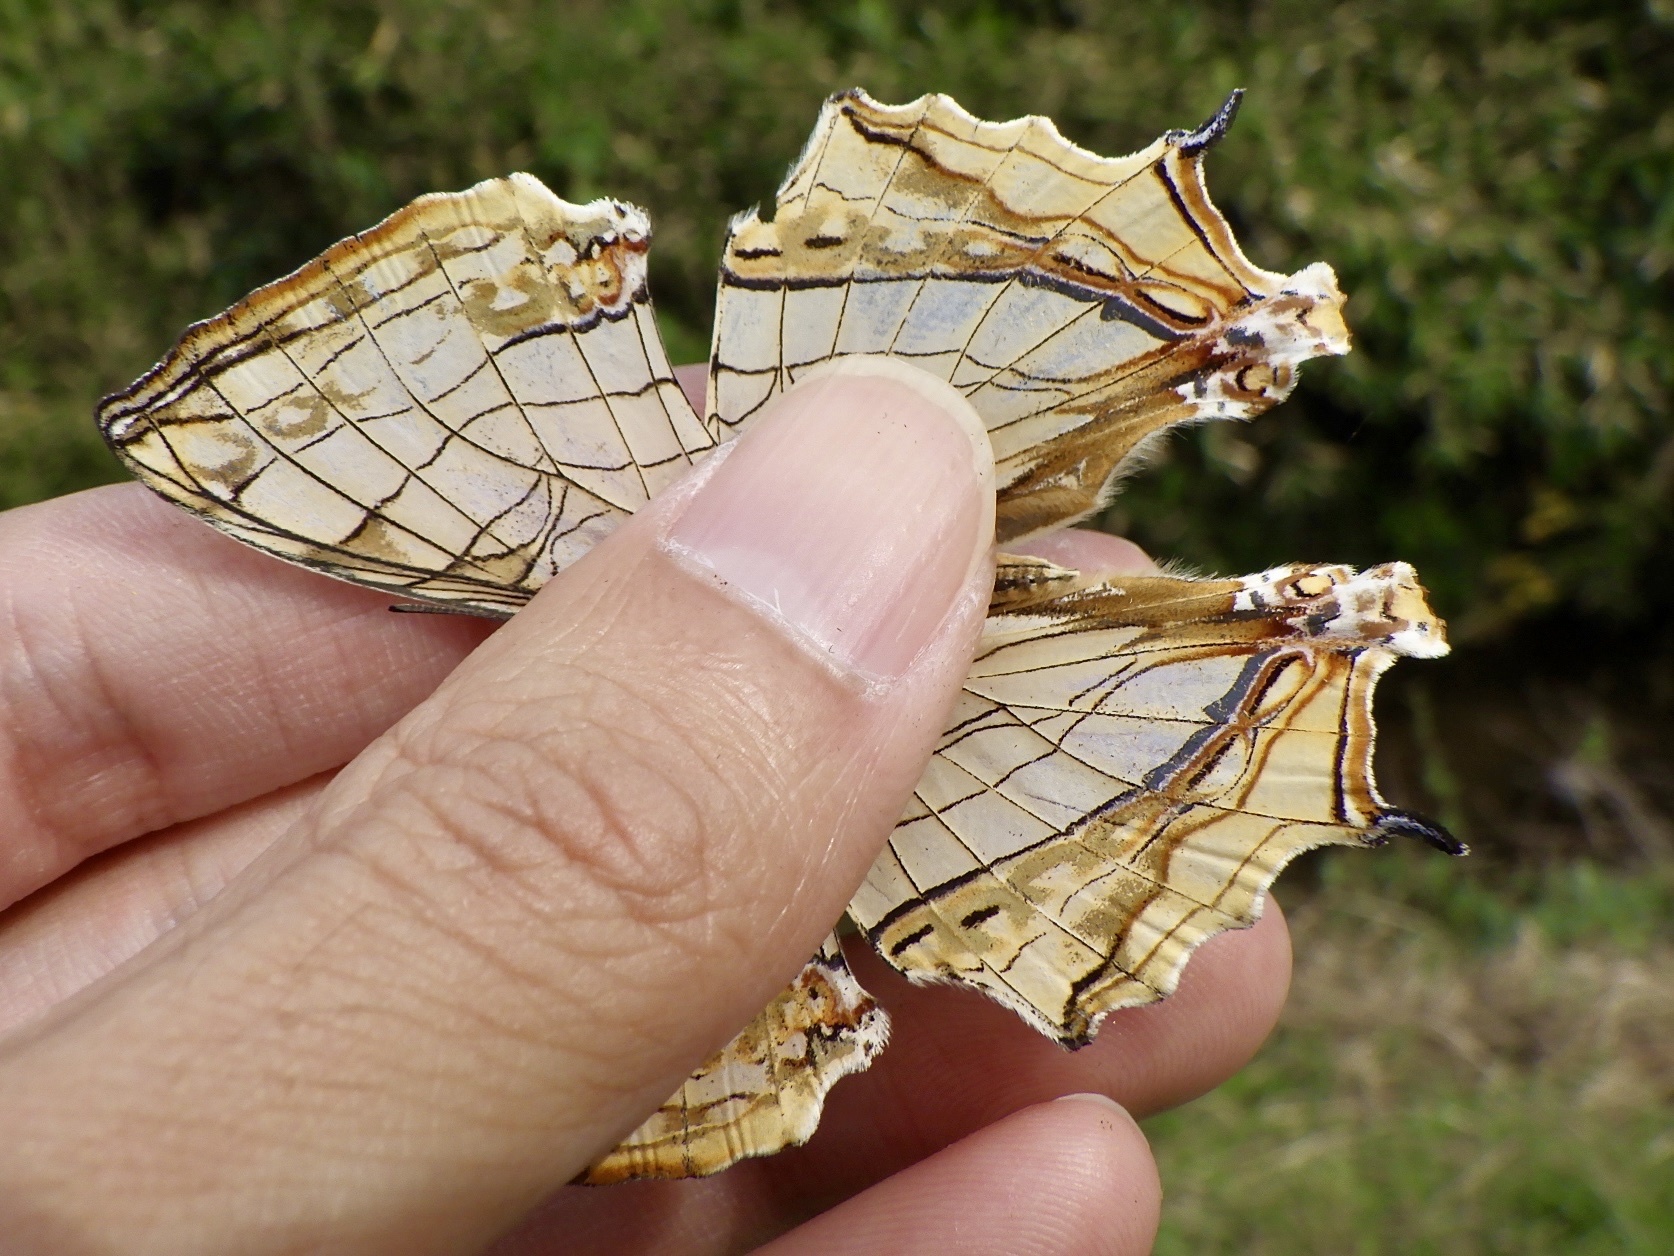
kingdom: Animalia
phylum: Arthropoda
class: Insecta
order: Lepidoptera
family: Nymphalidae
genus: Cyrestis
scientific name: Cyrestis thyodamas
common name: Common mapwing
